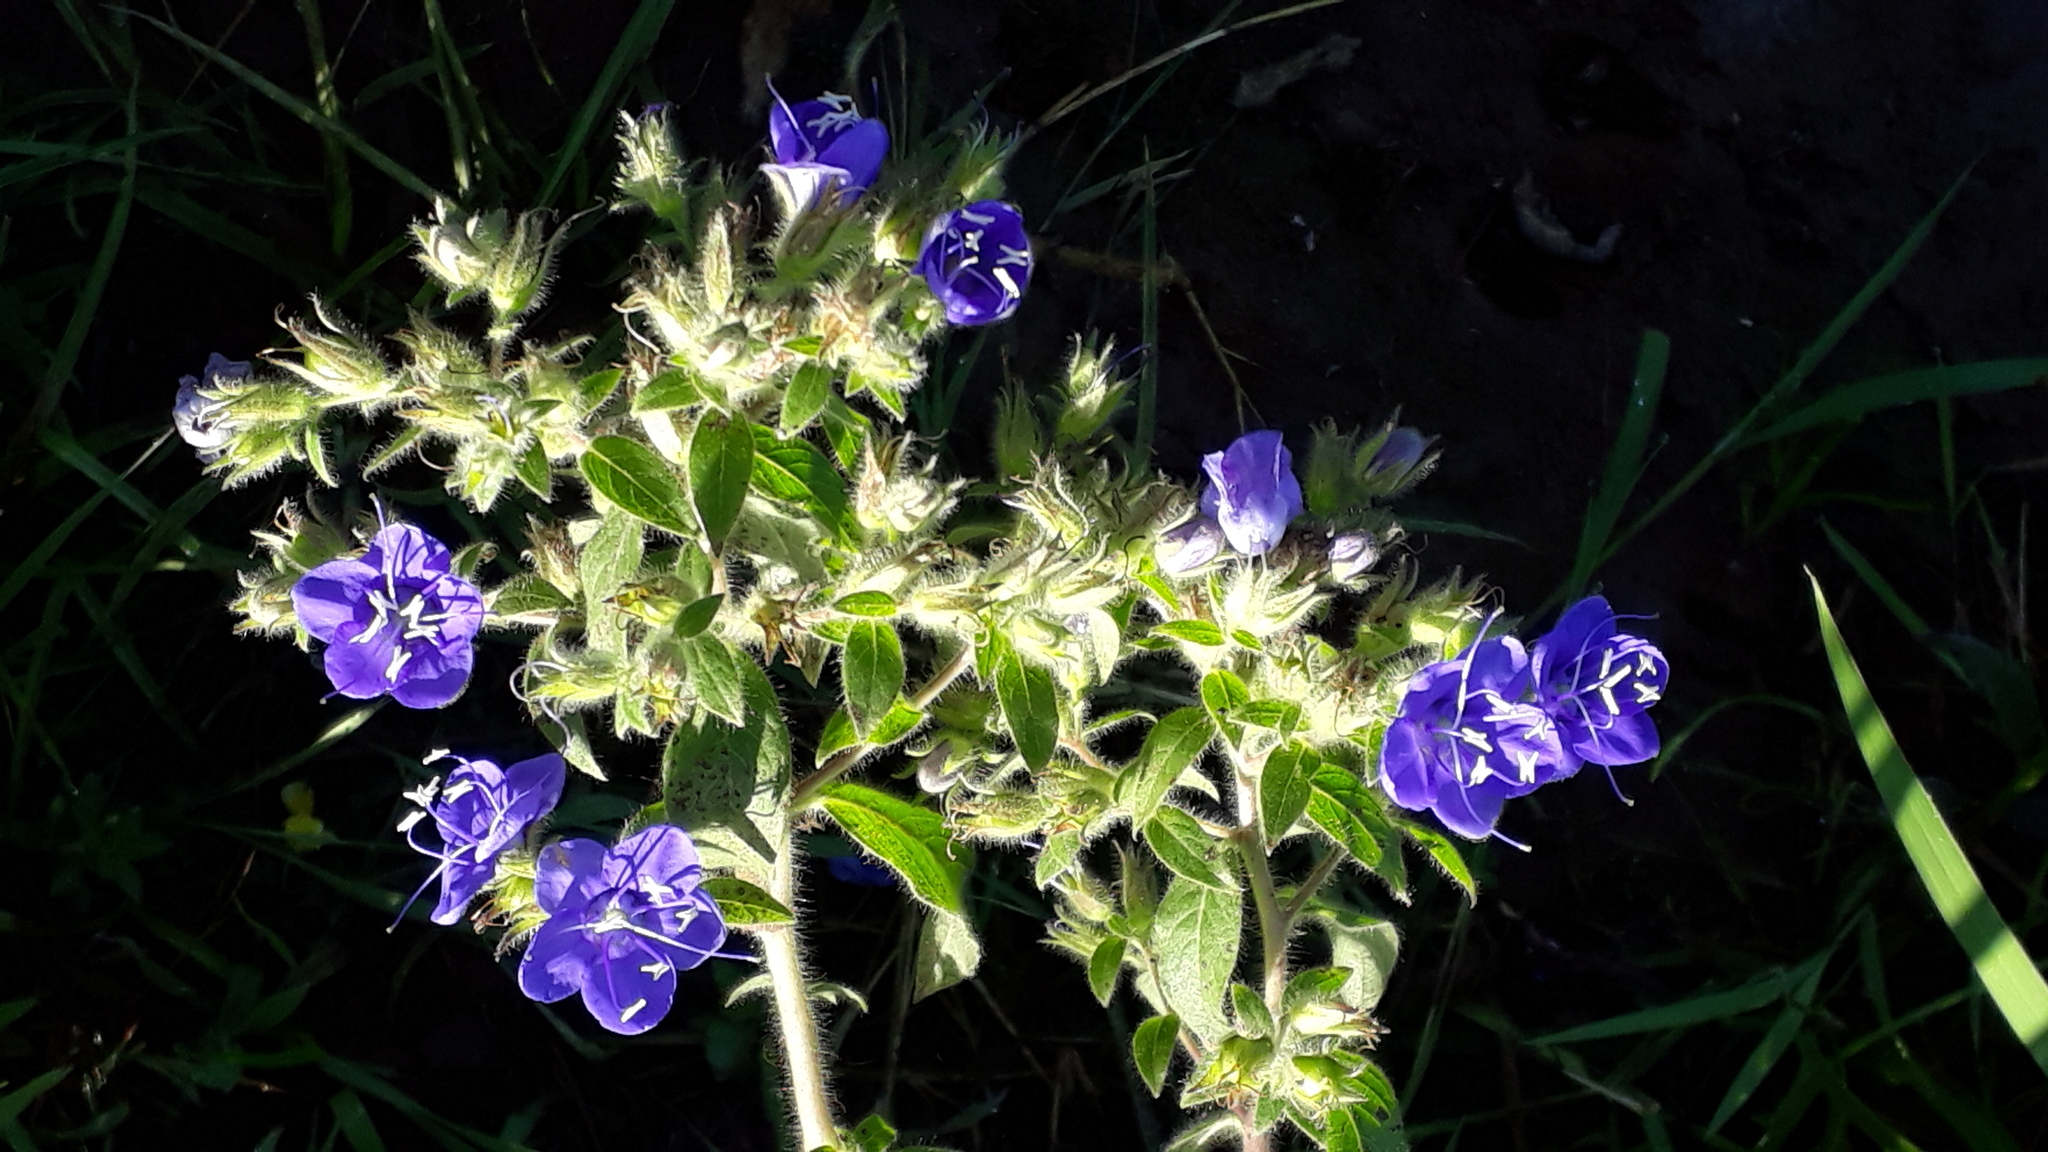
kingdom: Plantae
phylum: Tracheophyta
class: Magnoliopsida
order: Solanales
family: Hydroleaceae
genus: Hydrolea
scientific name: Hydrolea spinosa
